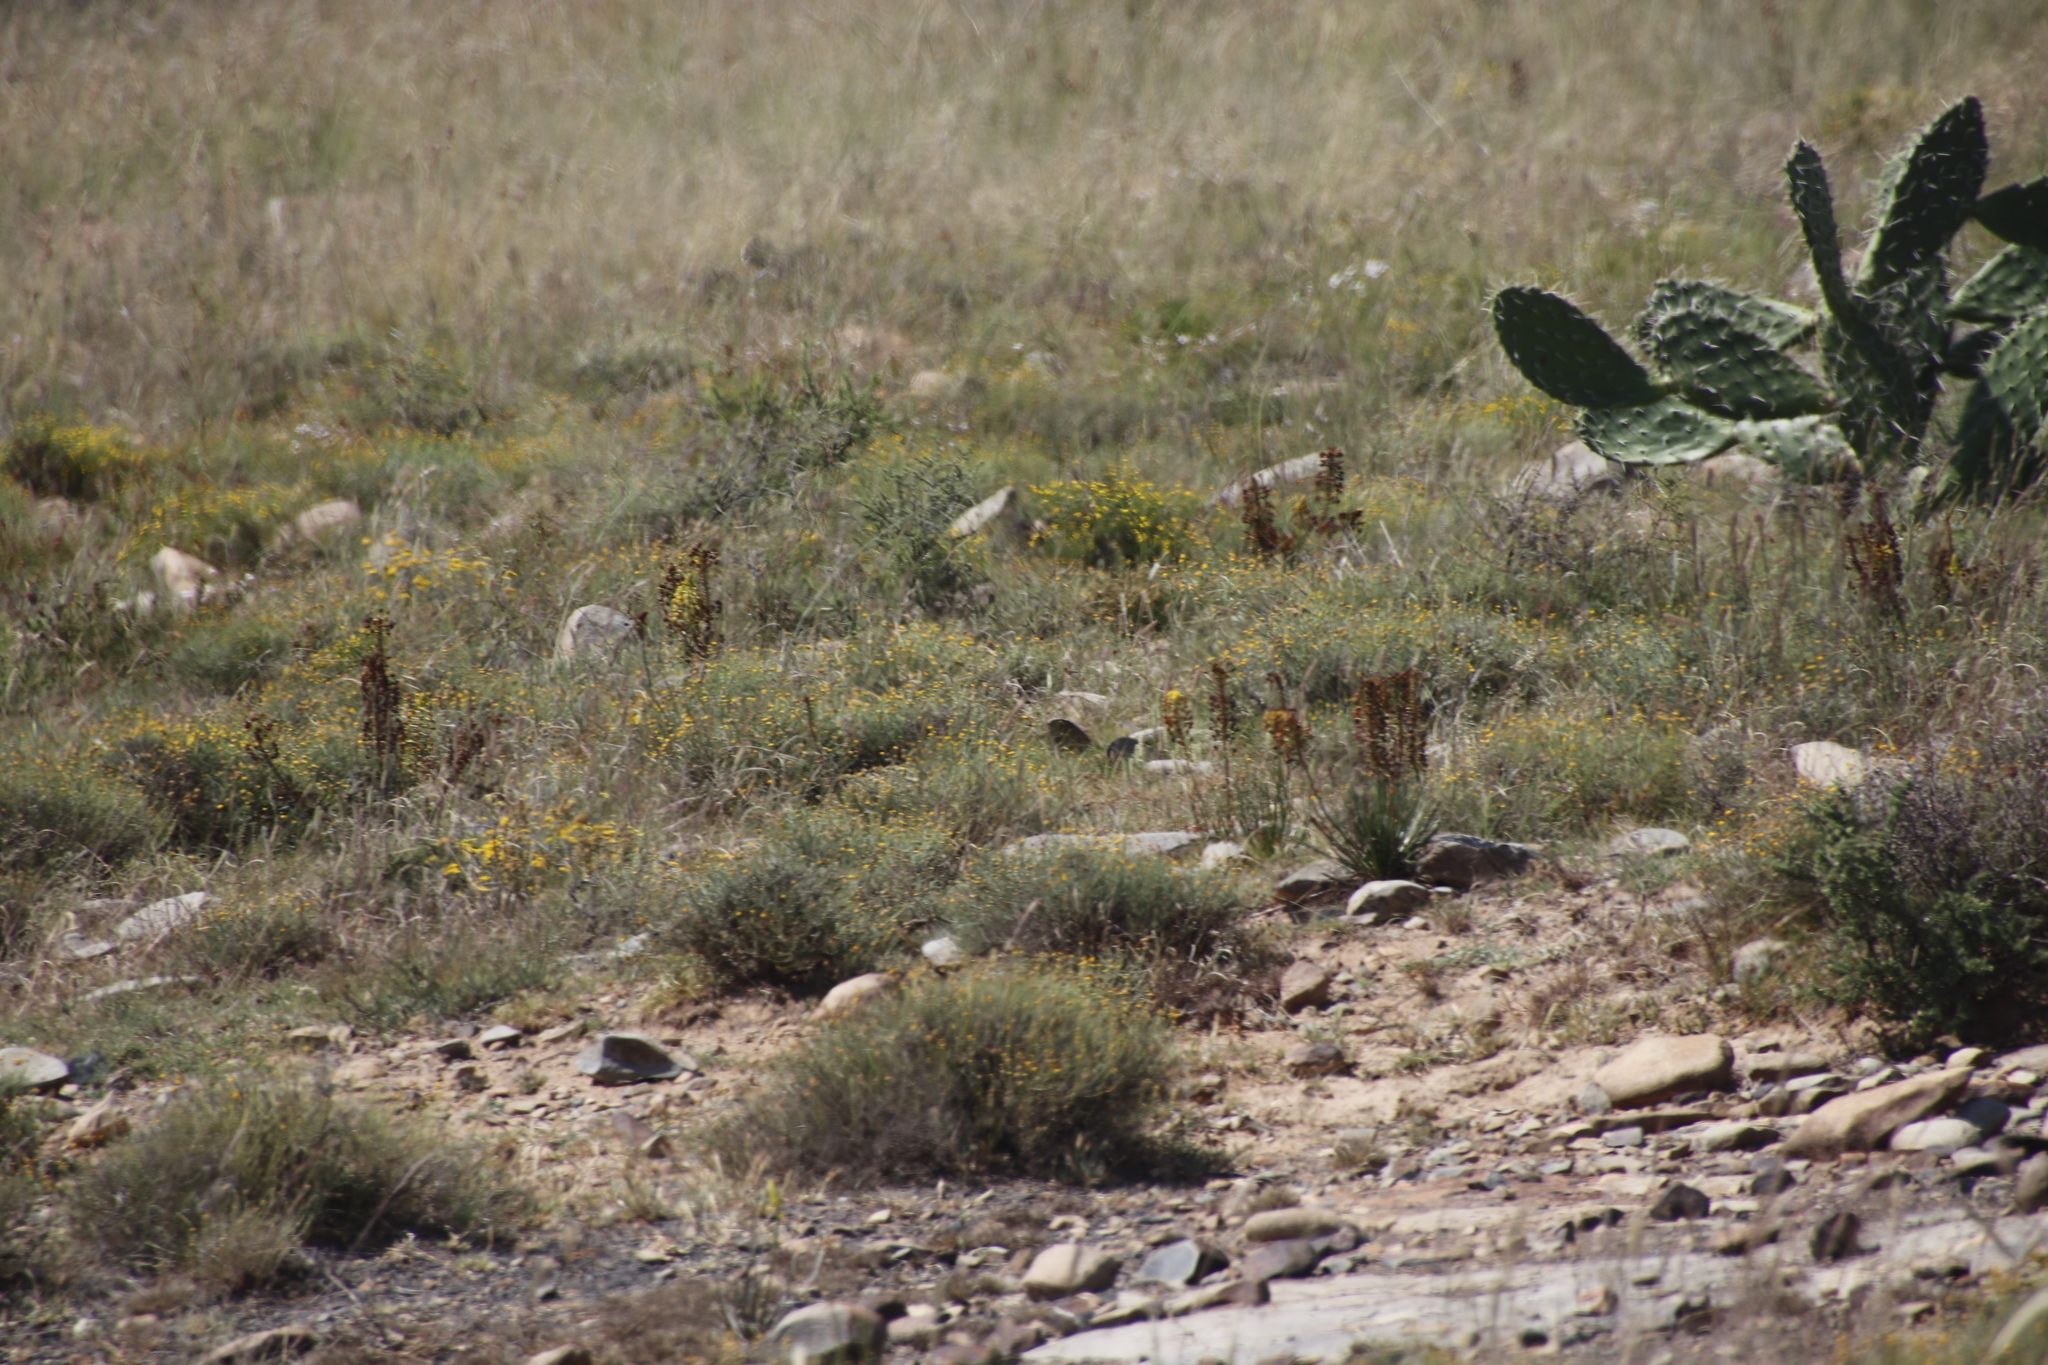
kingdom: Plantae
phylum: Tracheophyta
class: Magnoliopsida
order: Caryophyllales
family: Cactaceae
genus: Opuntia
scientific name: Opuntia ficus-indica
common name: Barbary fig
